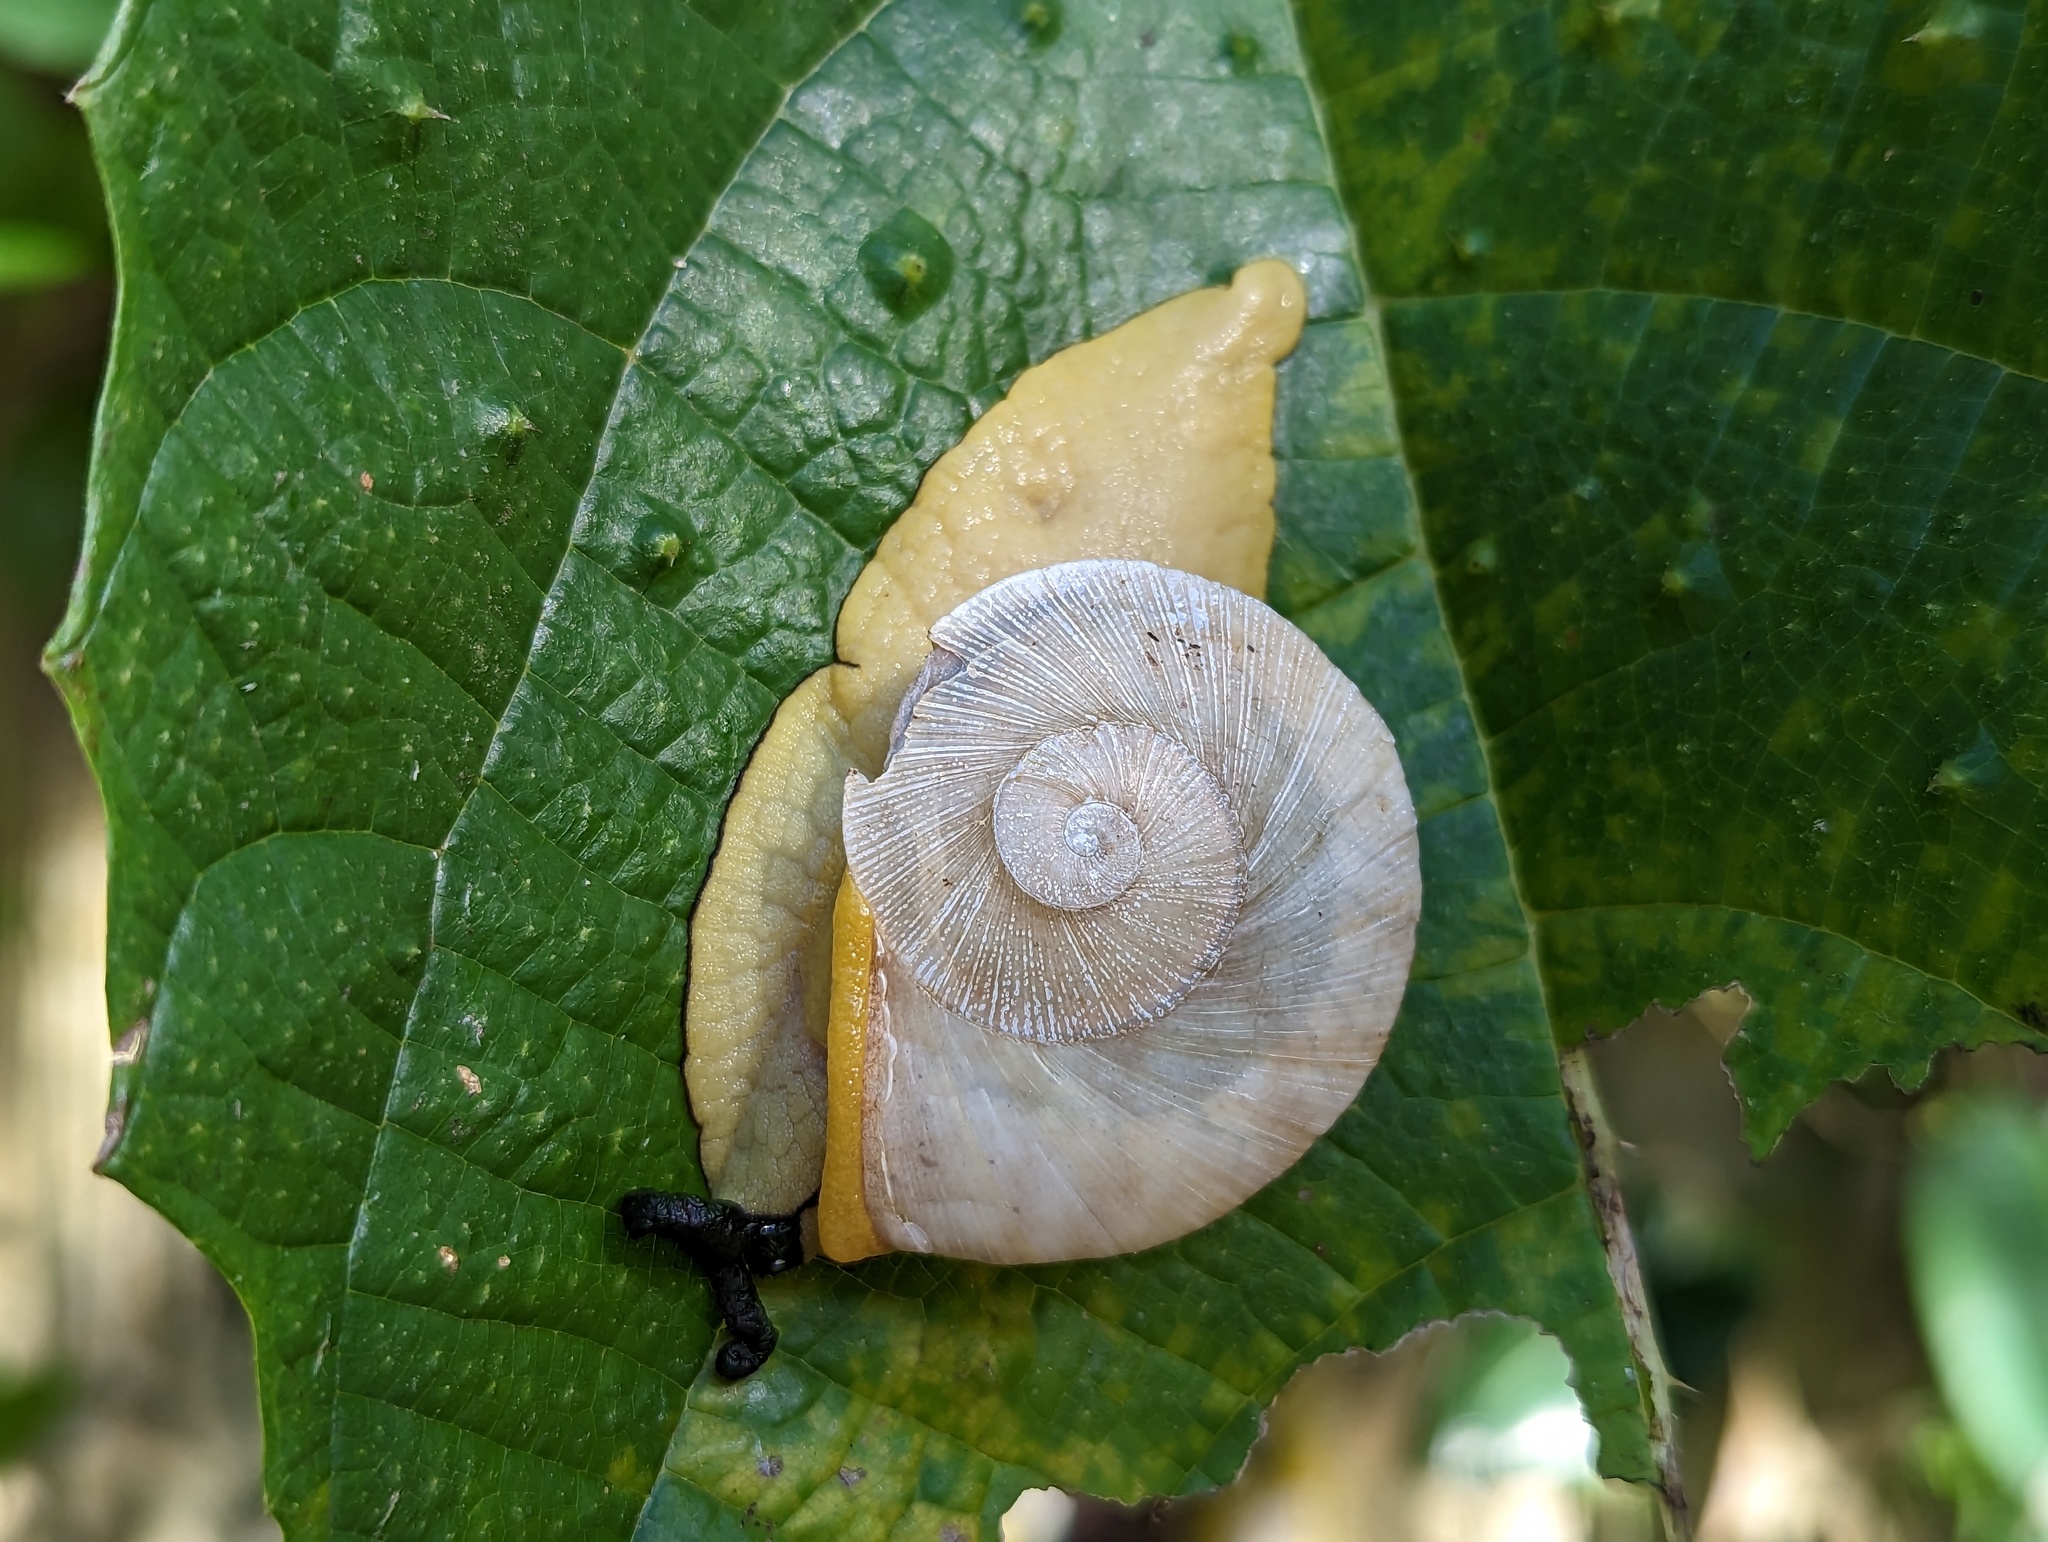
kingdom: Animalia
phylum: Mollusca
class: Gastropoda
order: Stylommatophora
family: Sagdidae
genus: Parthena
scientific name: Parthena acutangula
